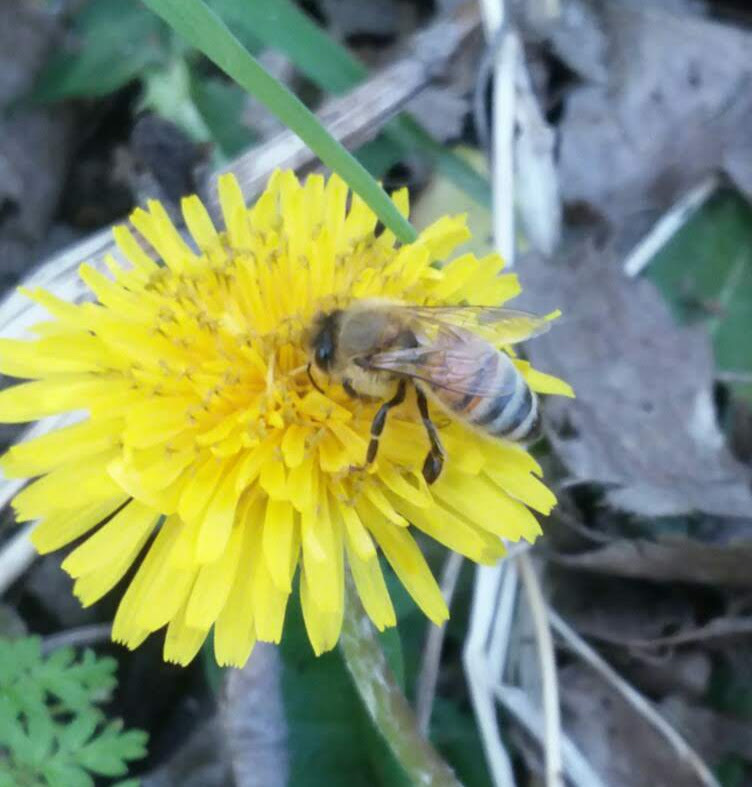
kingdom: Animalia
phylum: Arthropoda
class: Insecta
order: Hymenoptera
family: Apidae
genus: Apis
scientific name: Apis mellifera
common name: Honey bee
